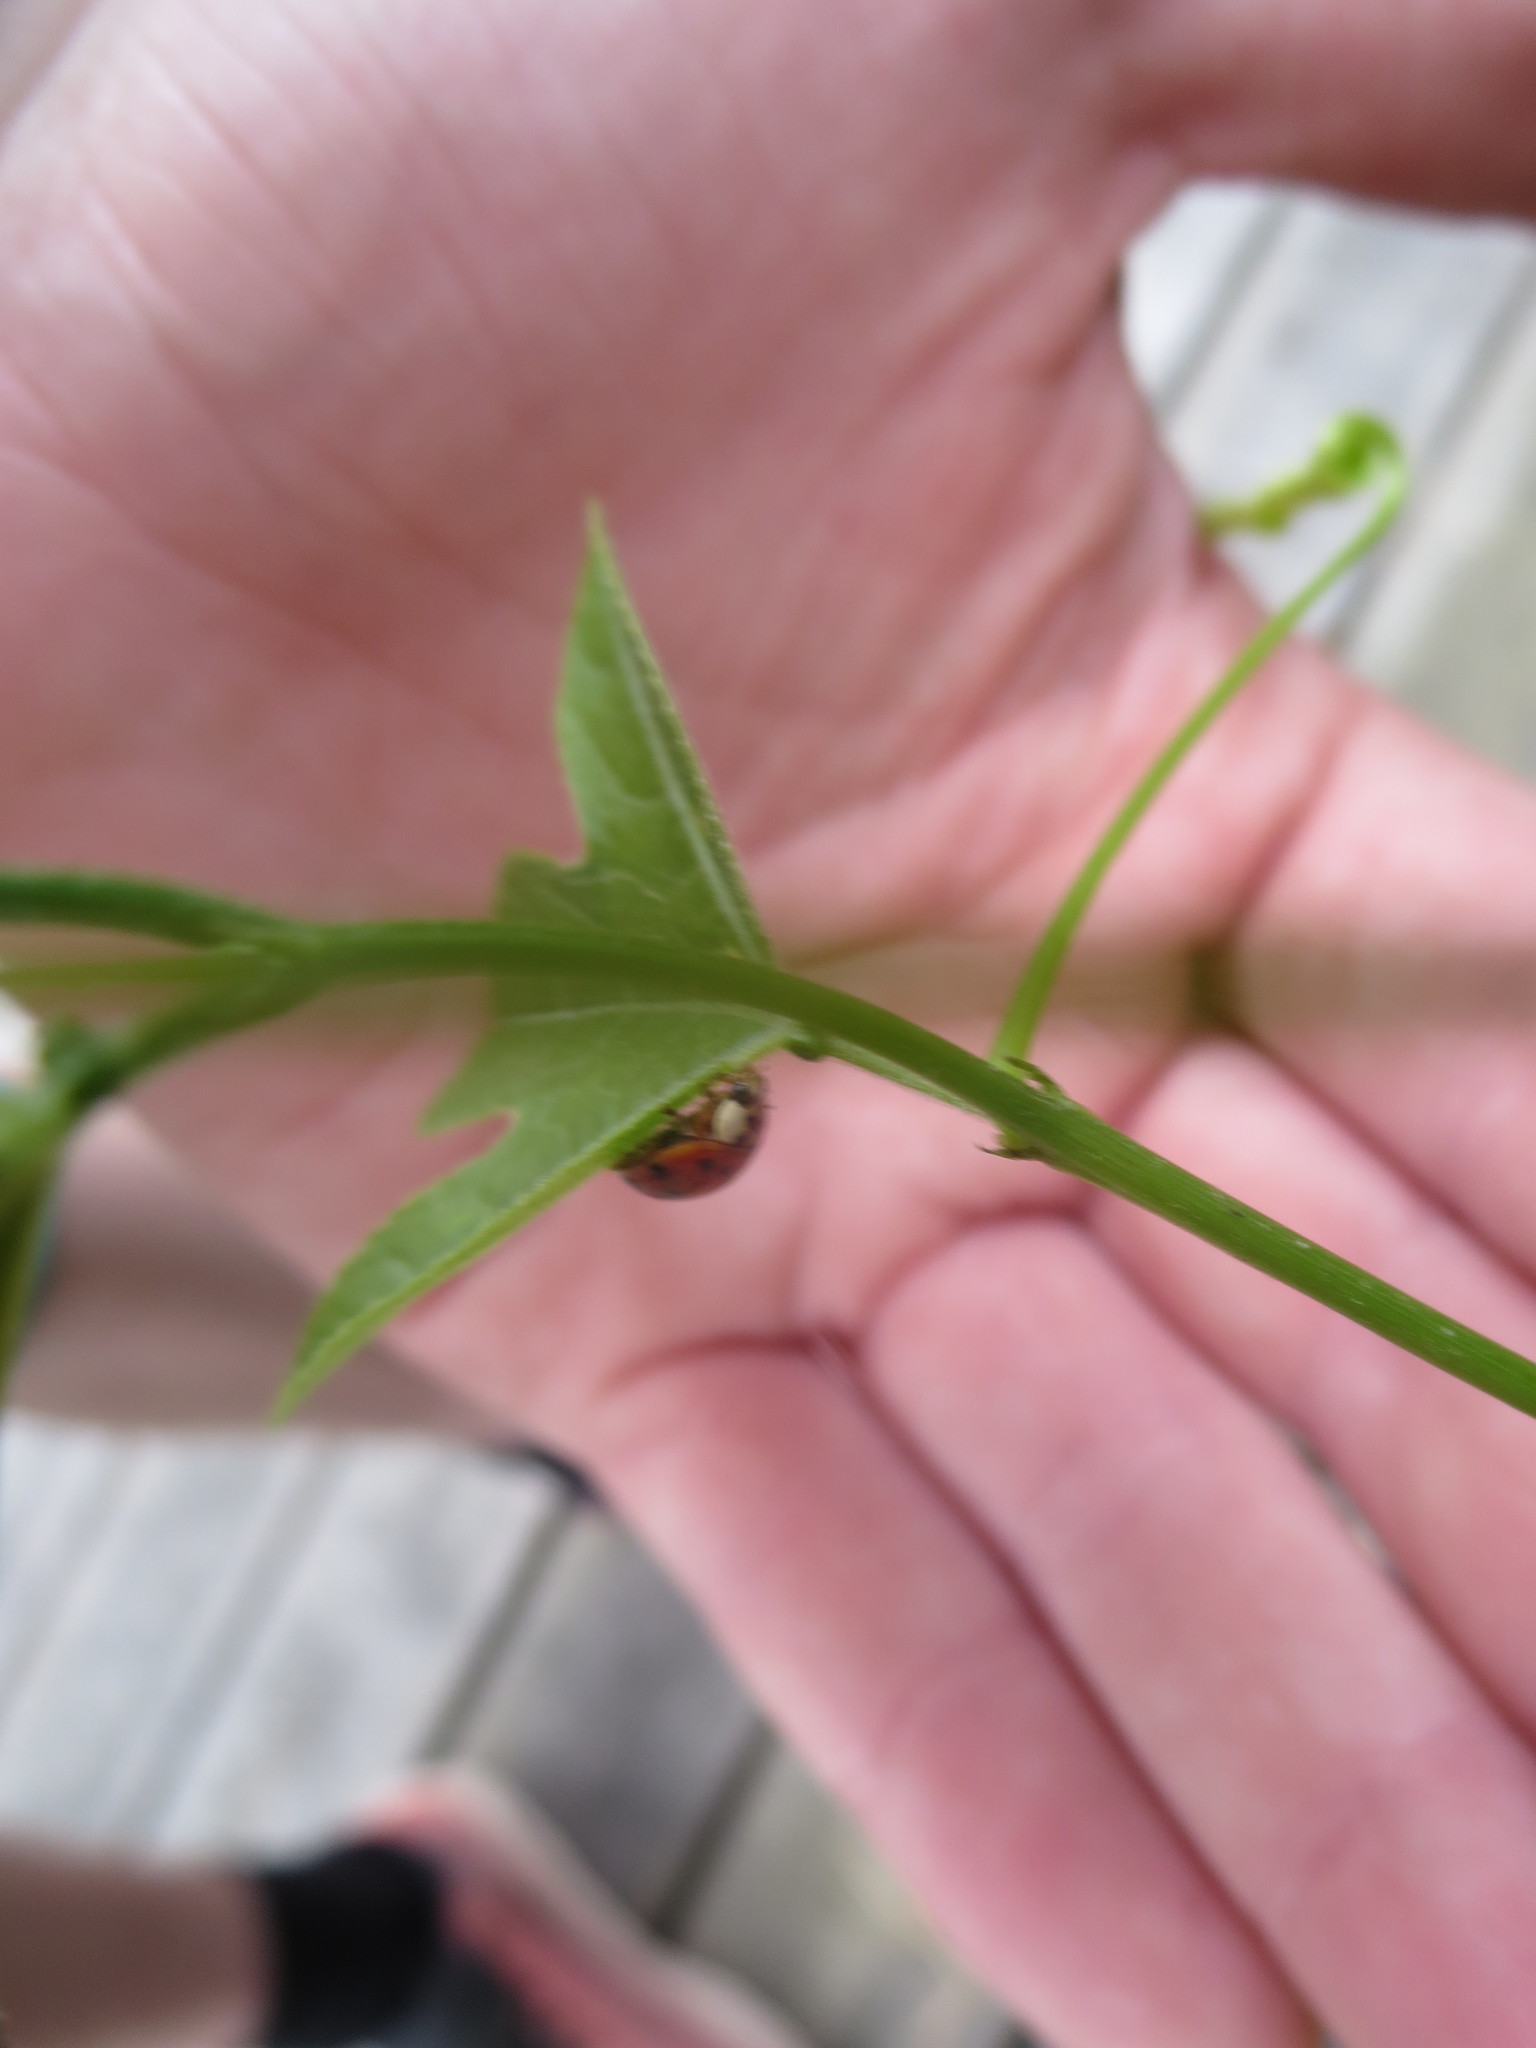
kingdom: Animalia
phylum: Arthropoda
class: Insecta
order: Coleoptera
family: Coccinellidae
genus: Harmonia
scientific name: Harmonia axyridis
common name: Harlequin ladybird
